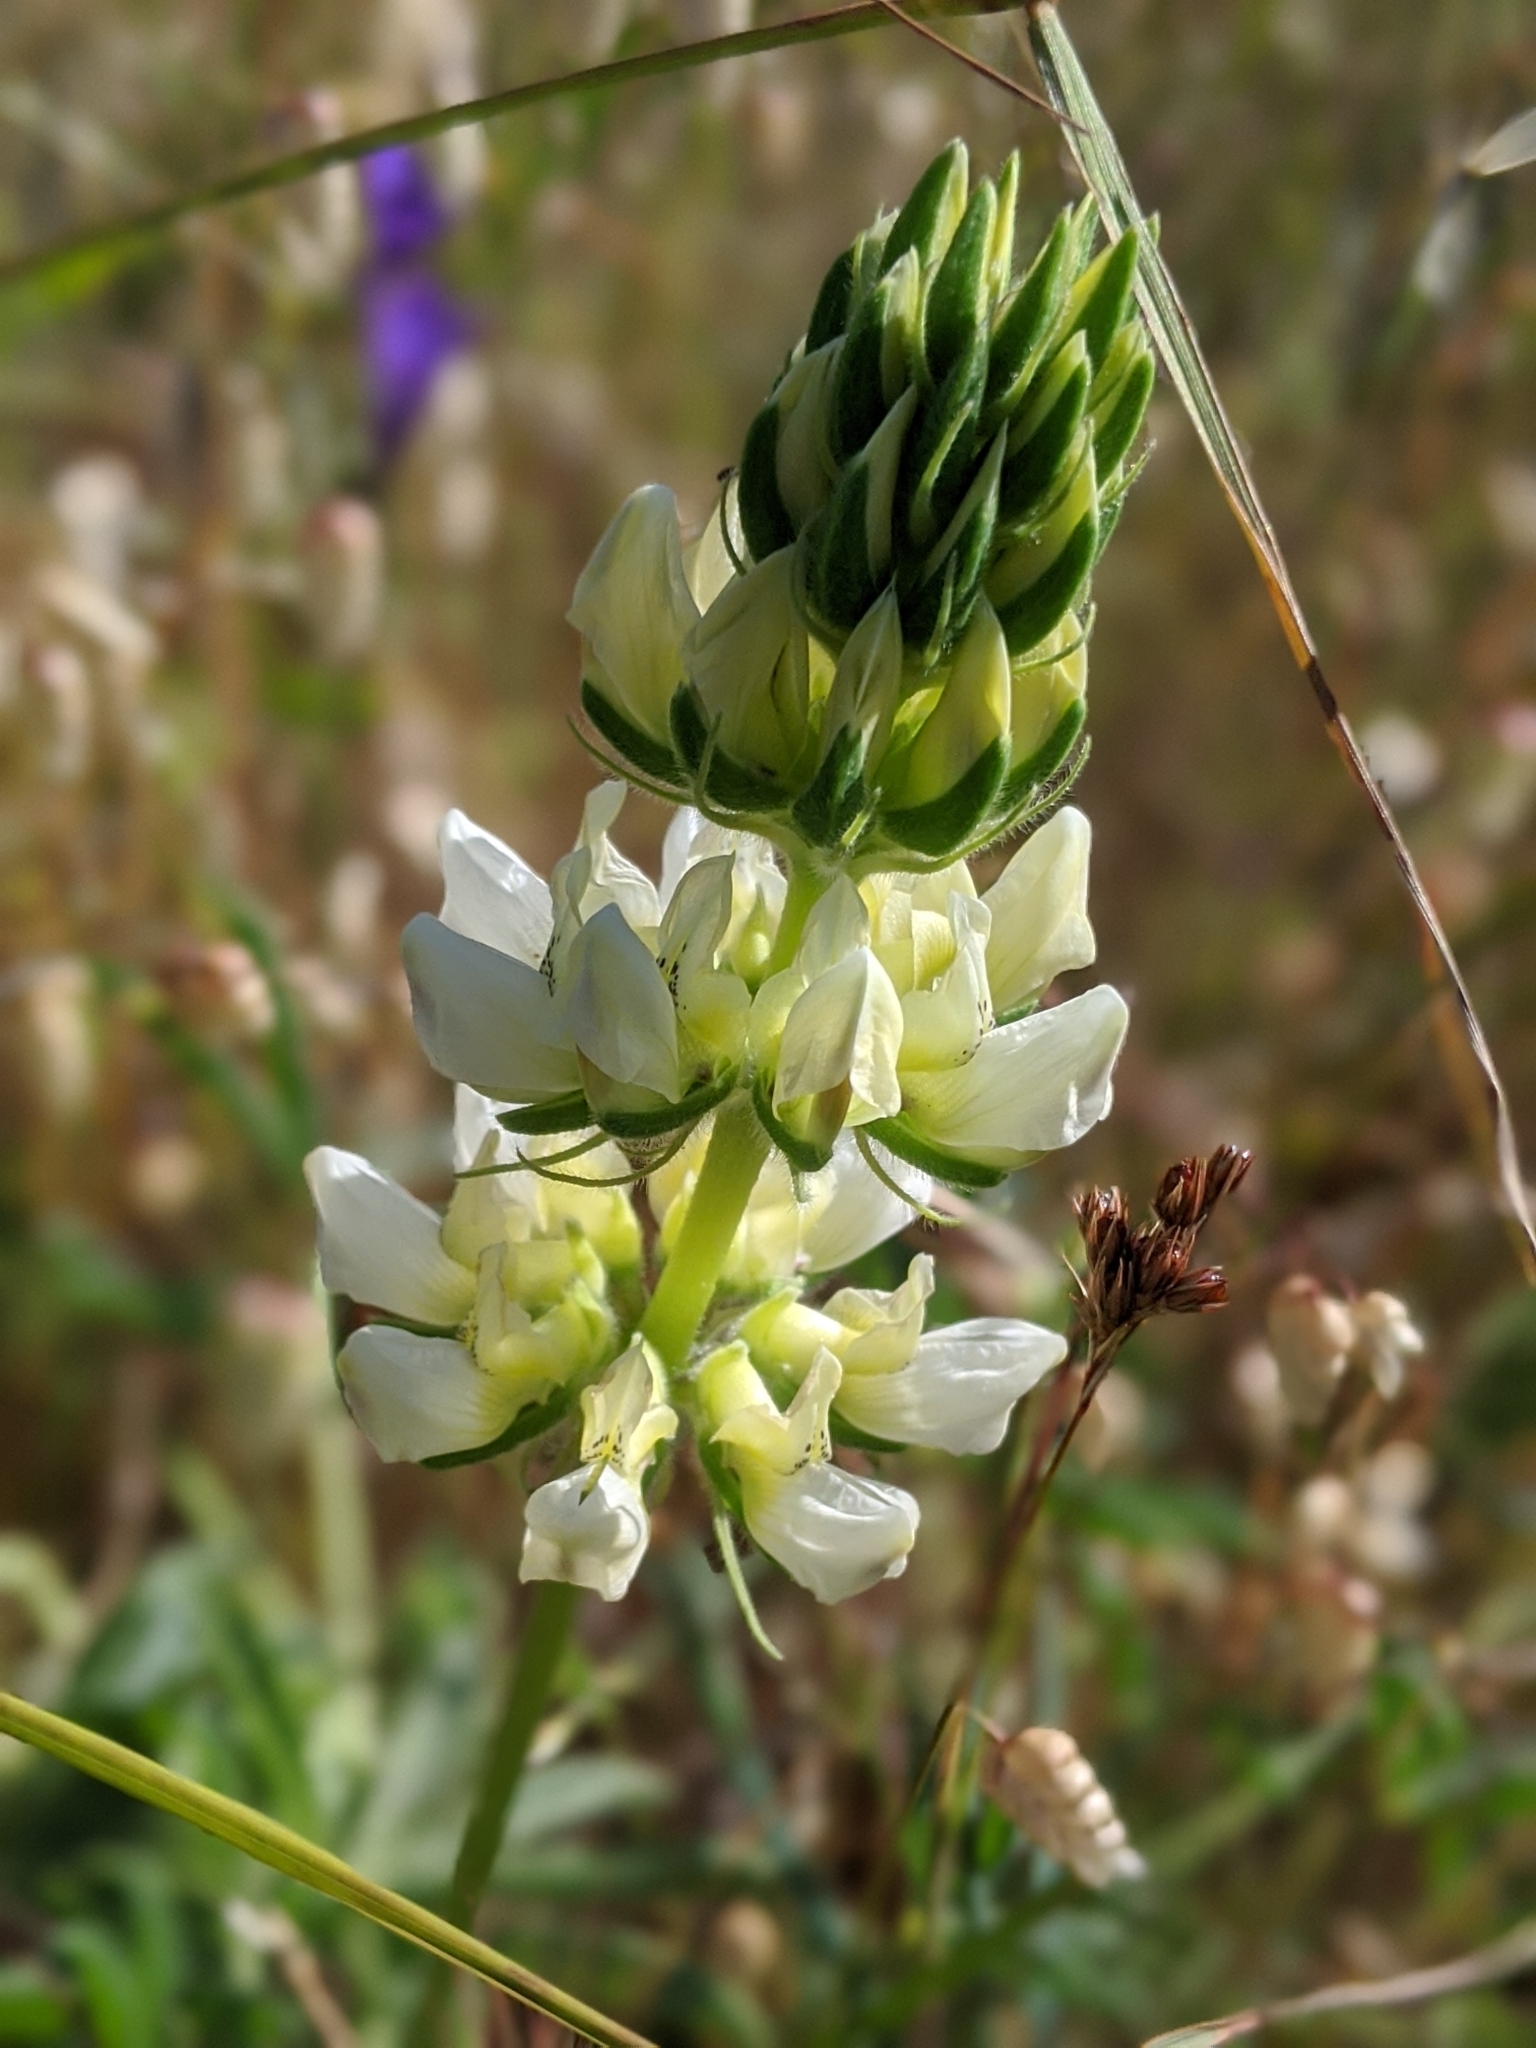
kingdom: Plantae
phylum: Tracheophyta
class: Magnoliopsida
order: Fabales
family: Fabaceae
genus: Lupinus
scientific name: Lupinus microcarpus
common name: Chick lupine
